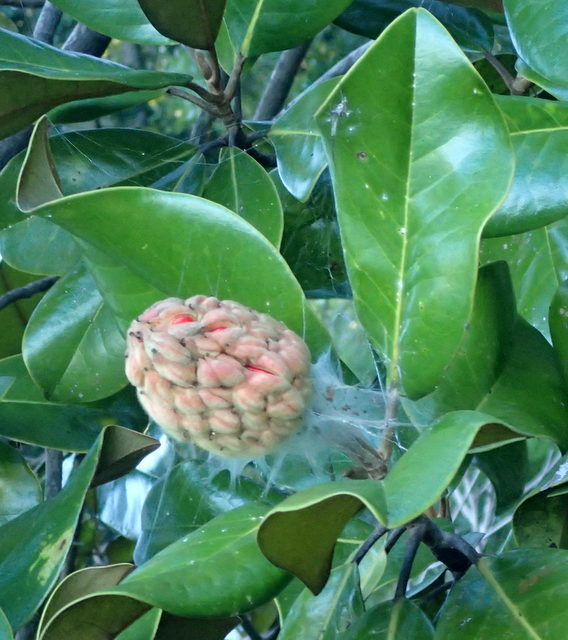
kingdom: Plantae
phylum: Tracheophyta
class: Magnoliopsida
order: Magnoliales
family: Magnoliaceae
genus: Magnolia
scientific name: Magnolia grandiflora
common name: Southern magnolia
